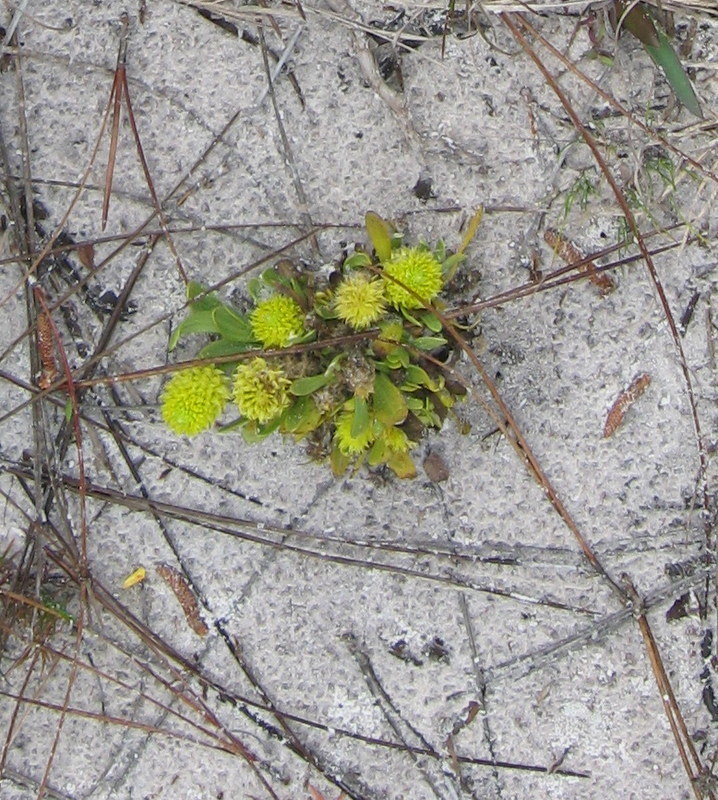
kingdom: Plantae
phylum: Tracheophyta
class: Magnoliopsida
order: Fabales
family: Polygalaceae
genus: Polygala
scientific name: Polygala nana
